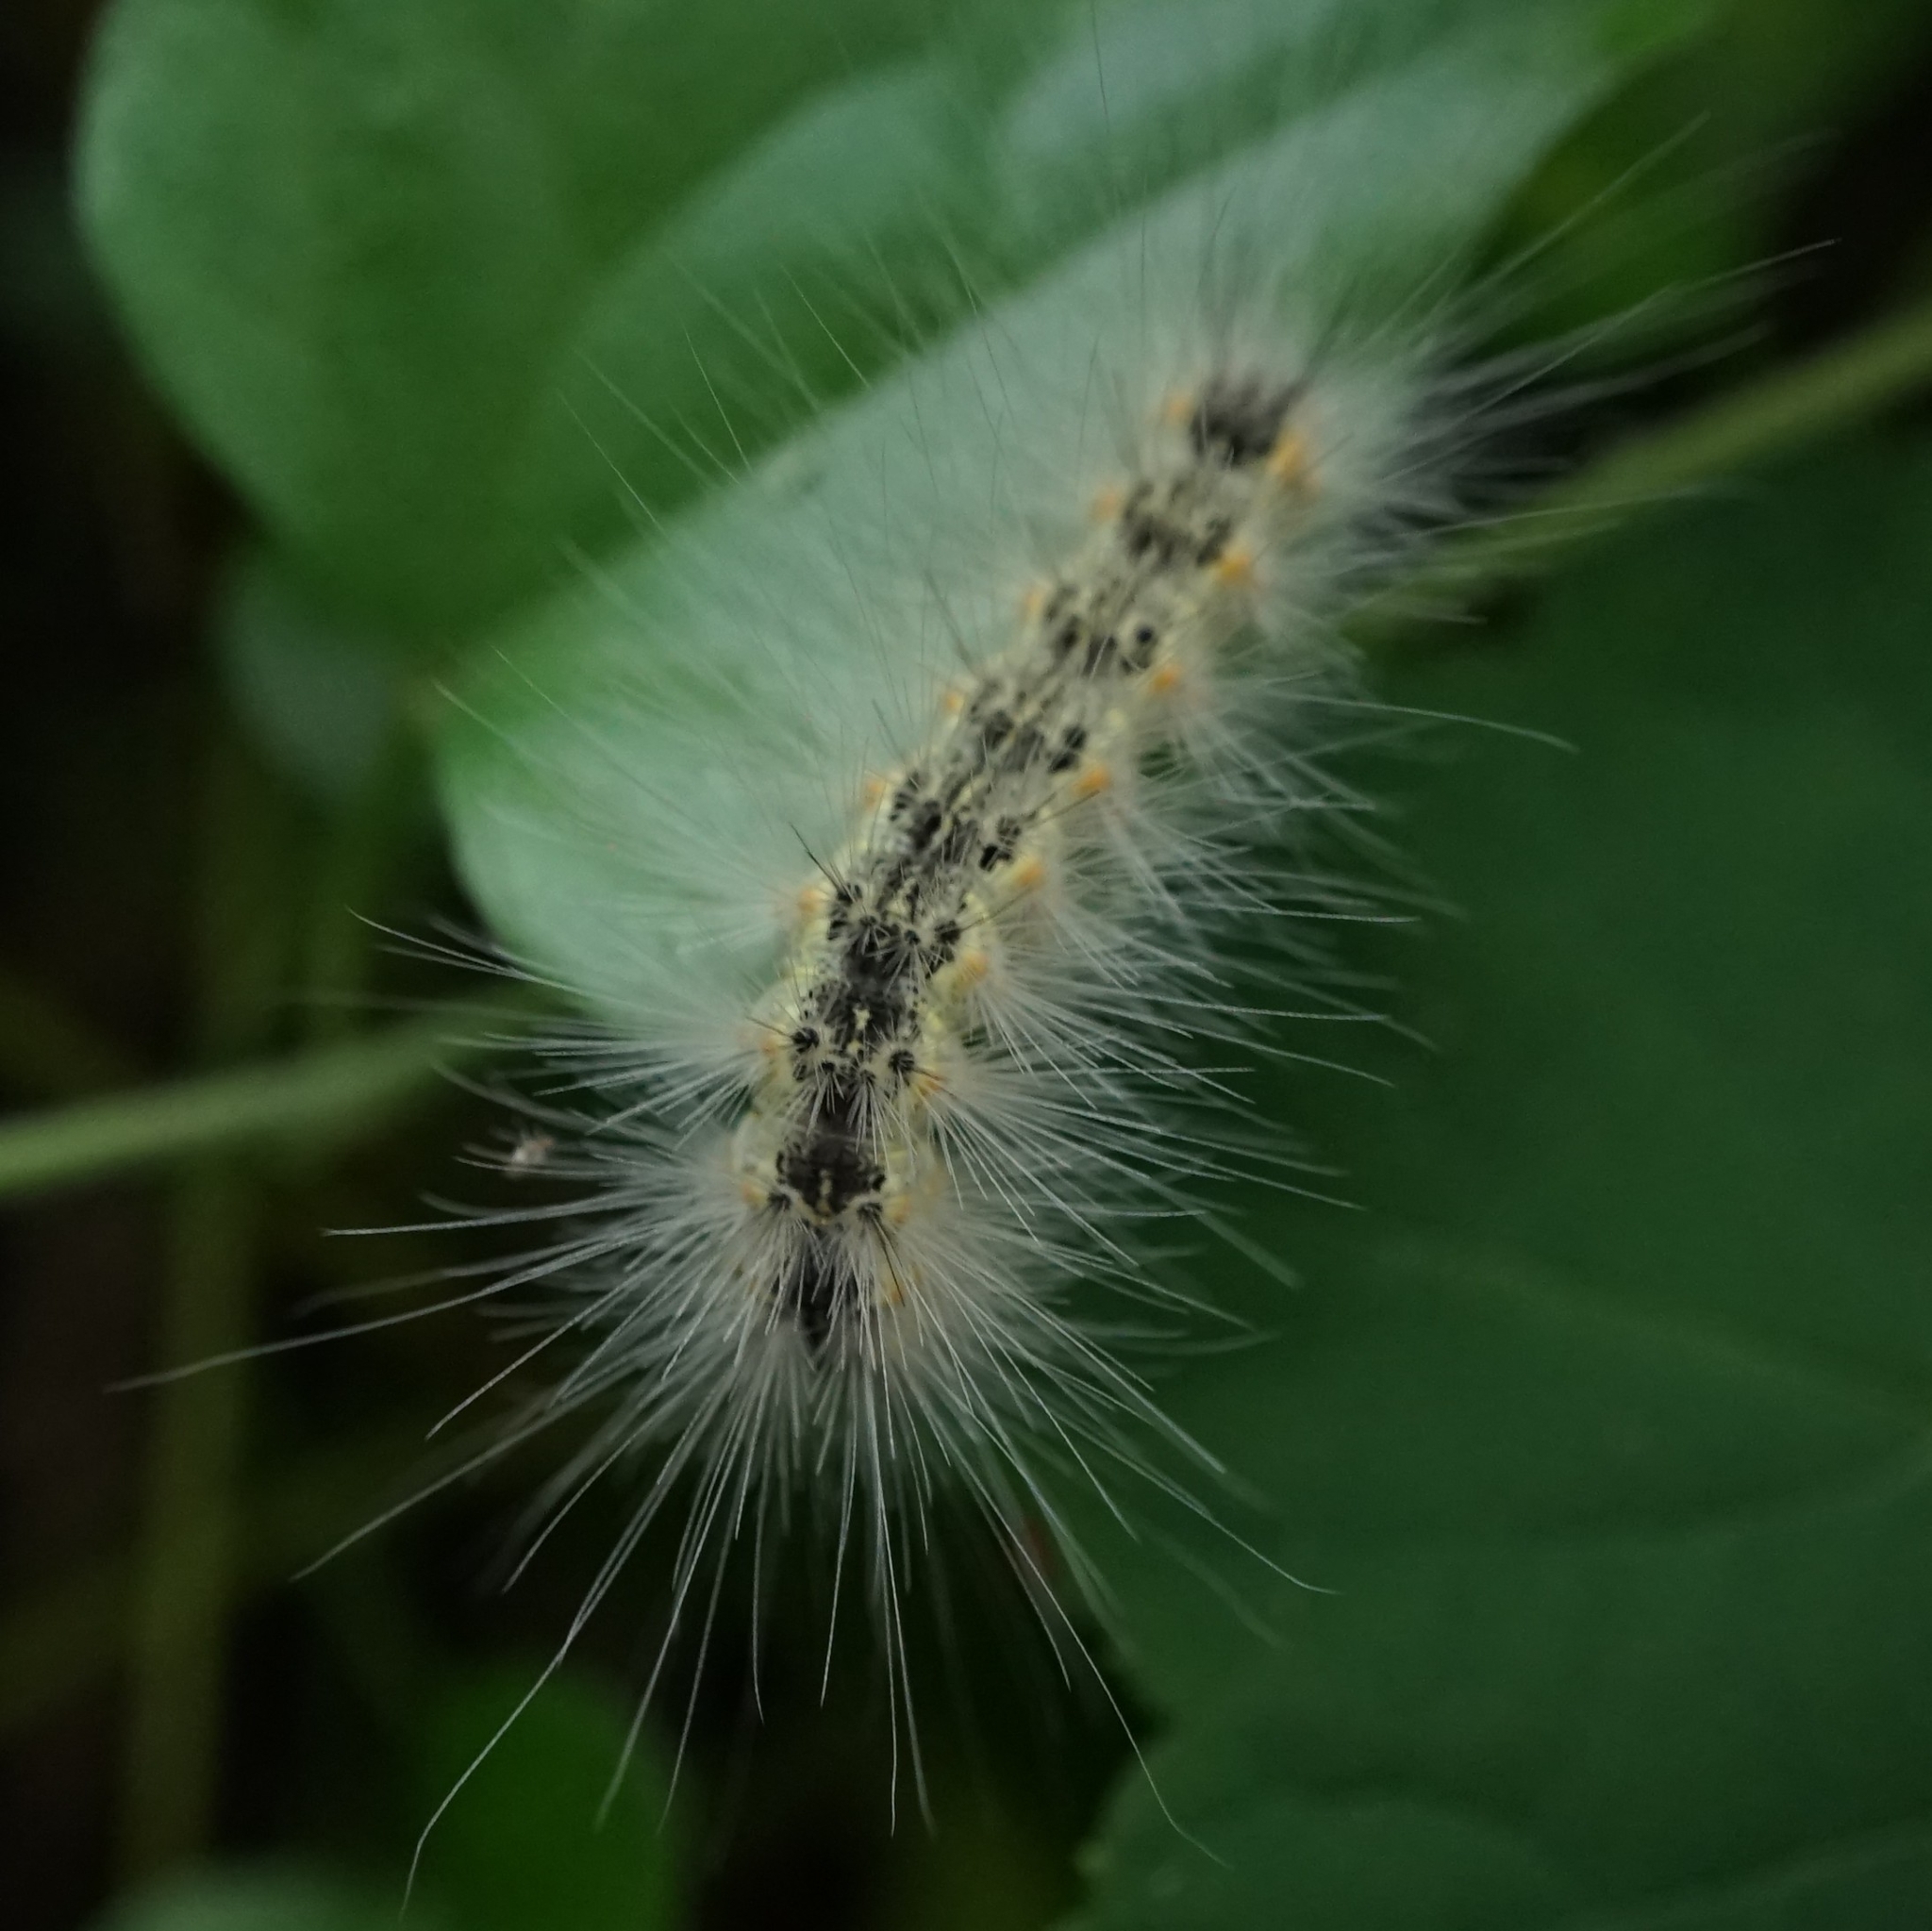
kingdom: Animalia
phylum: Arthropoda
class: Insecta
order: Lepidoptera
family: Erebidae
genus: Hyphantria
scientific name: Hyphantria cunea
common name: American white moth
